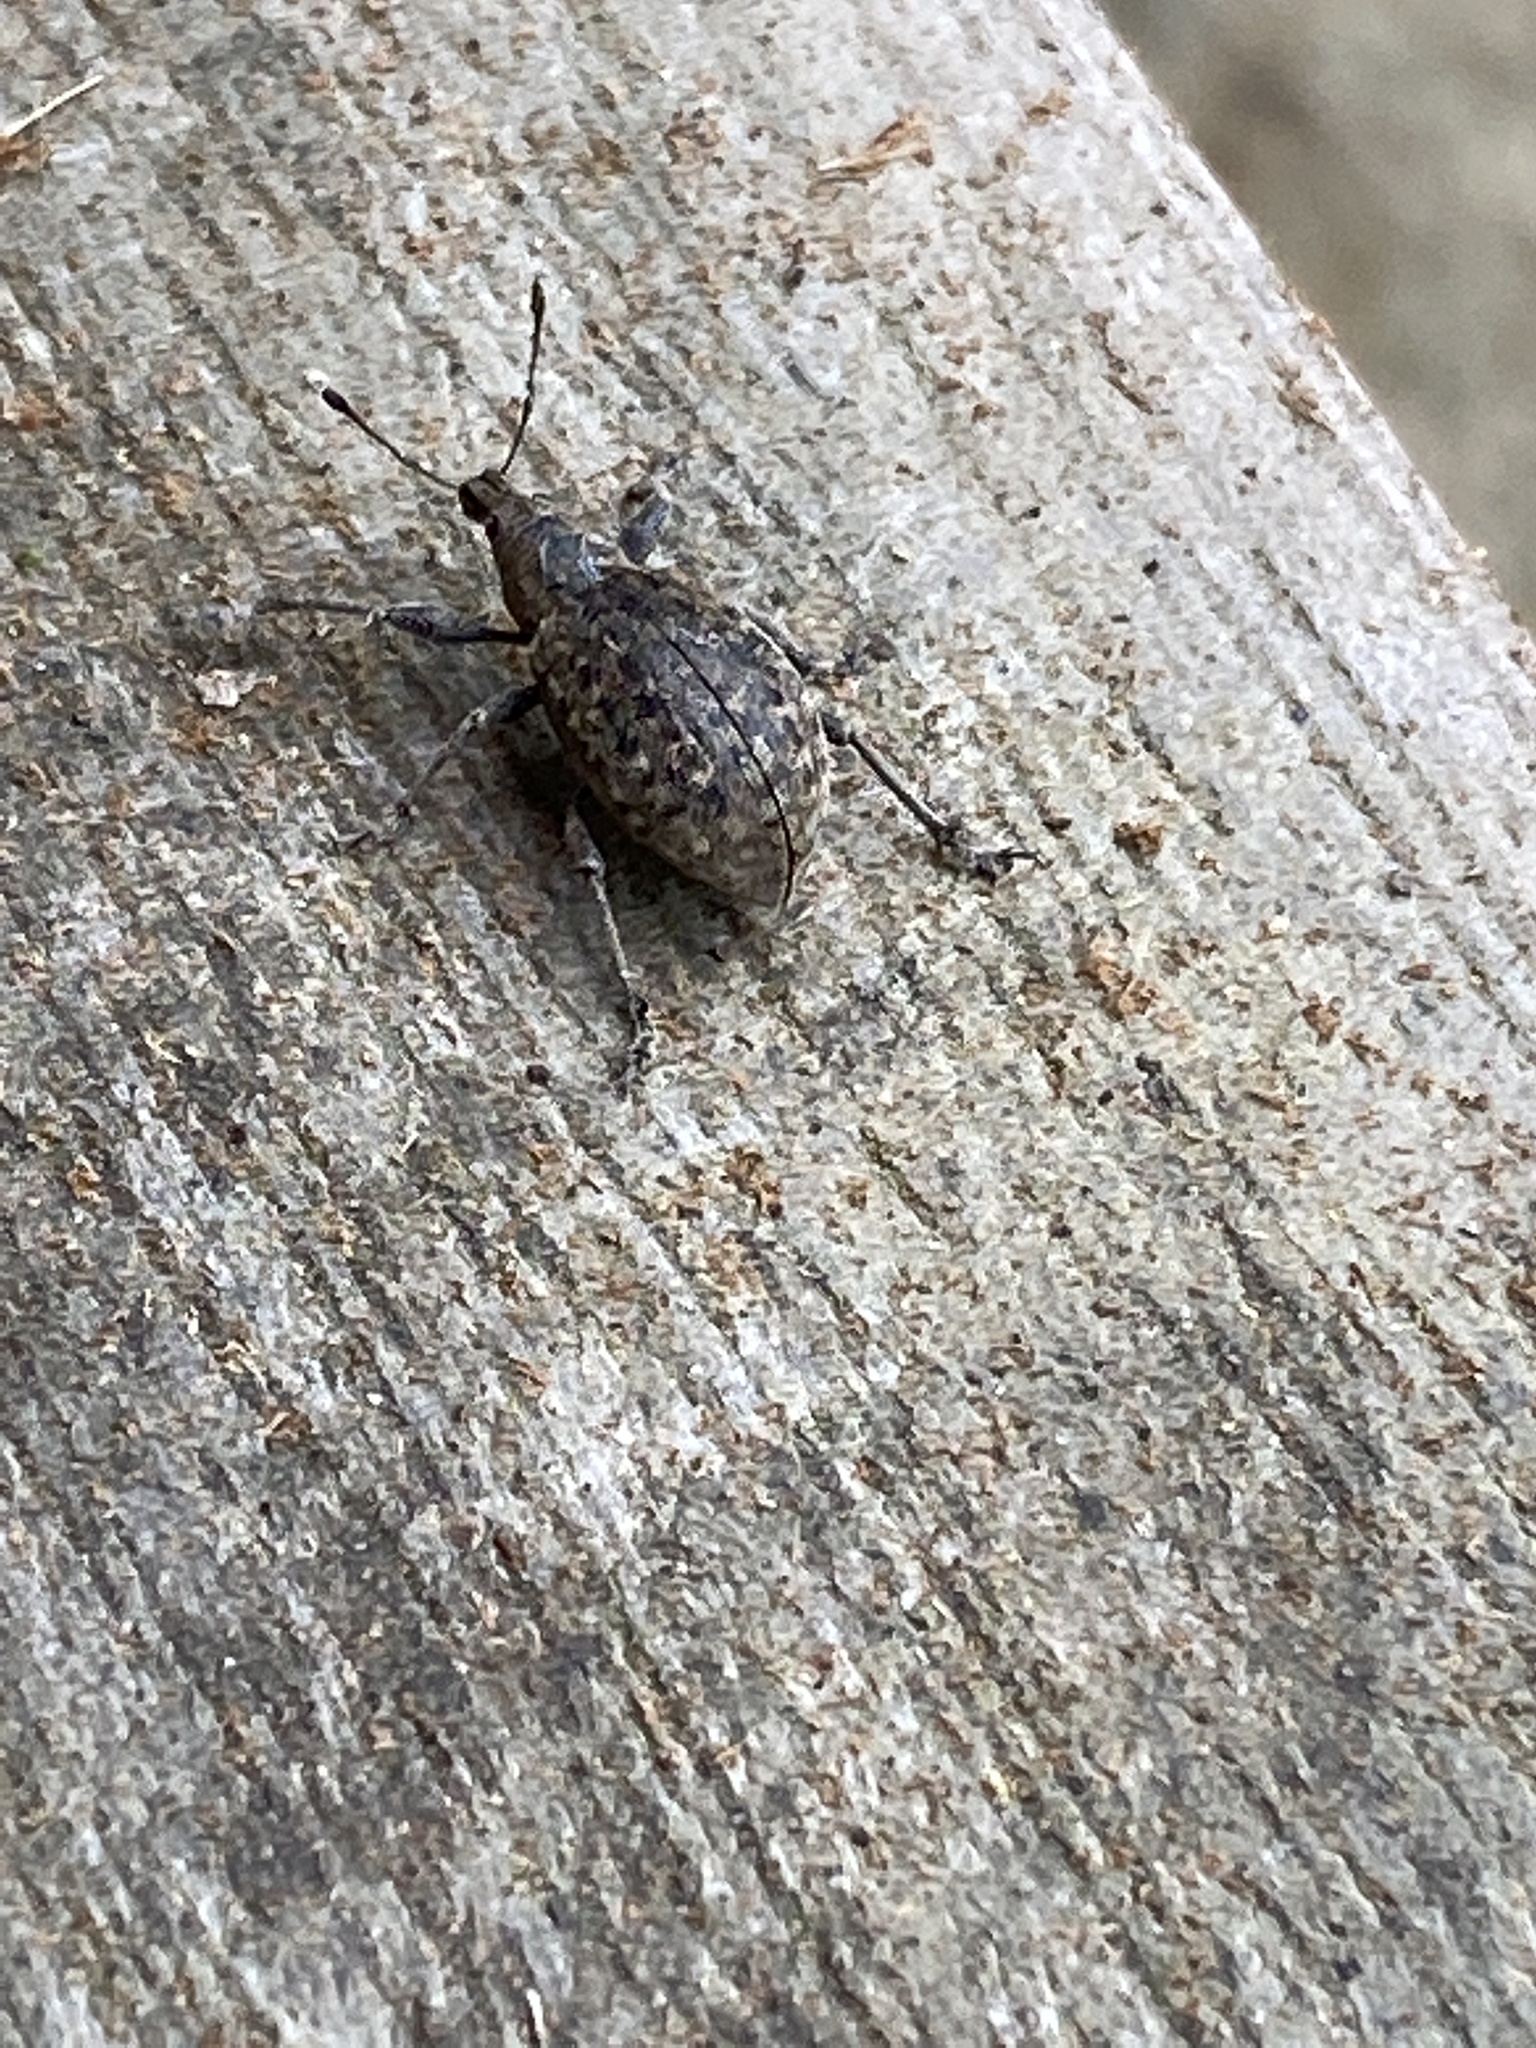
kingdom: Animalia
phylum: Arthropoda
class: Insecta
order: Coleoptera
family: Curculionidae
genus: Liophloeus
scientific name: Liophloeus tessulatus
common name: Weevil
